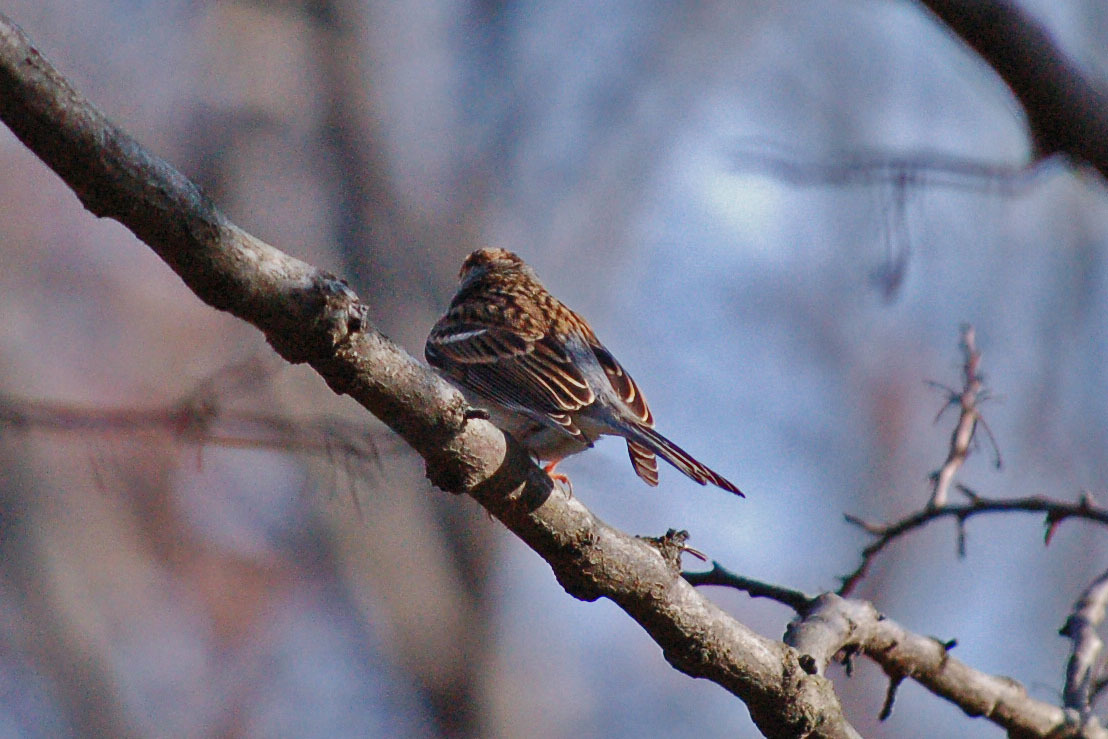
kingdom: Animalia
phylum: Chordata
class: Aves
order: Passeriformes
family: Passerellidae
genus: Spizella
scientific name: Spizella passerina
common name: Chipping sparrow
